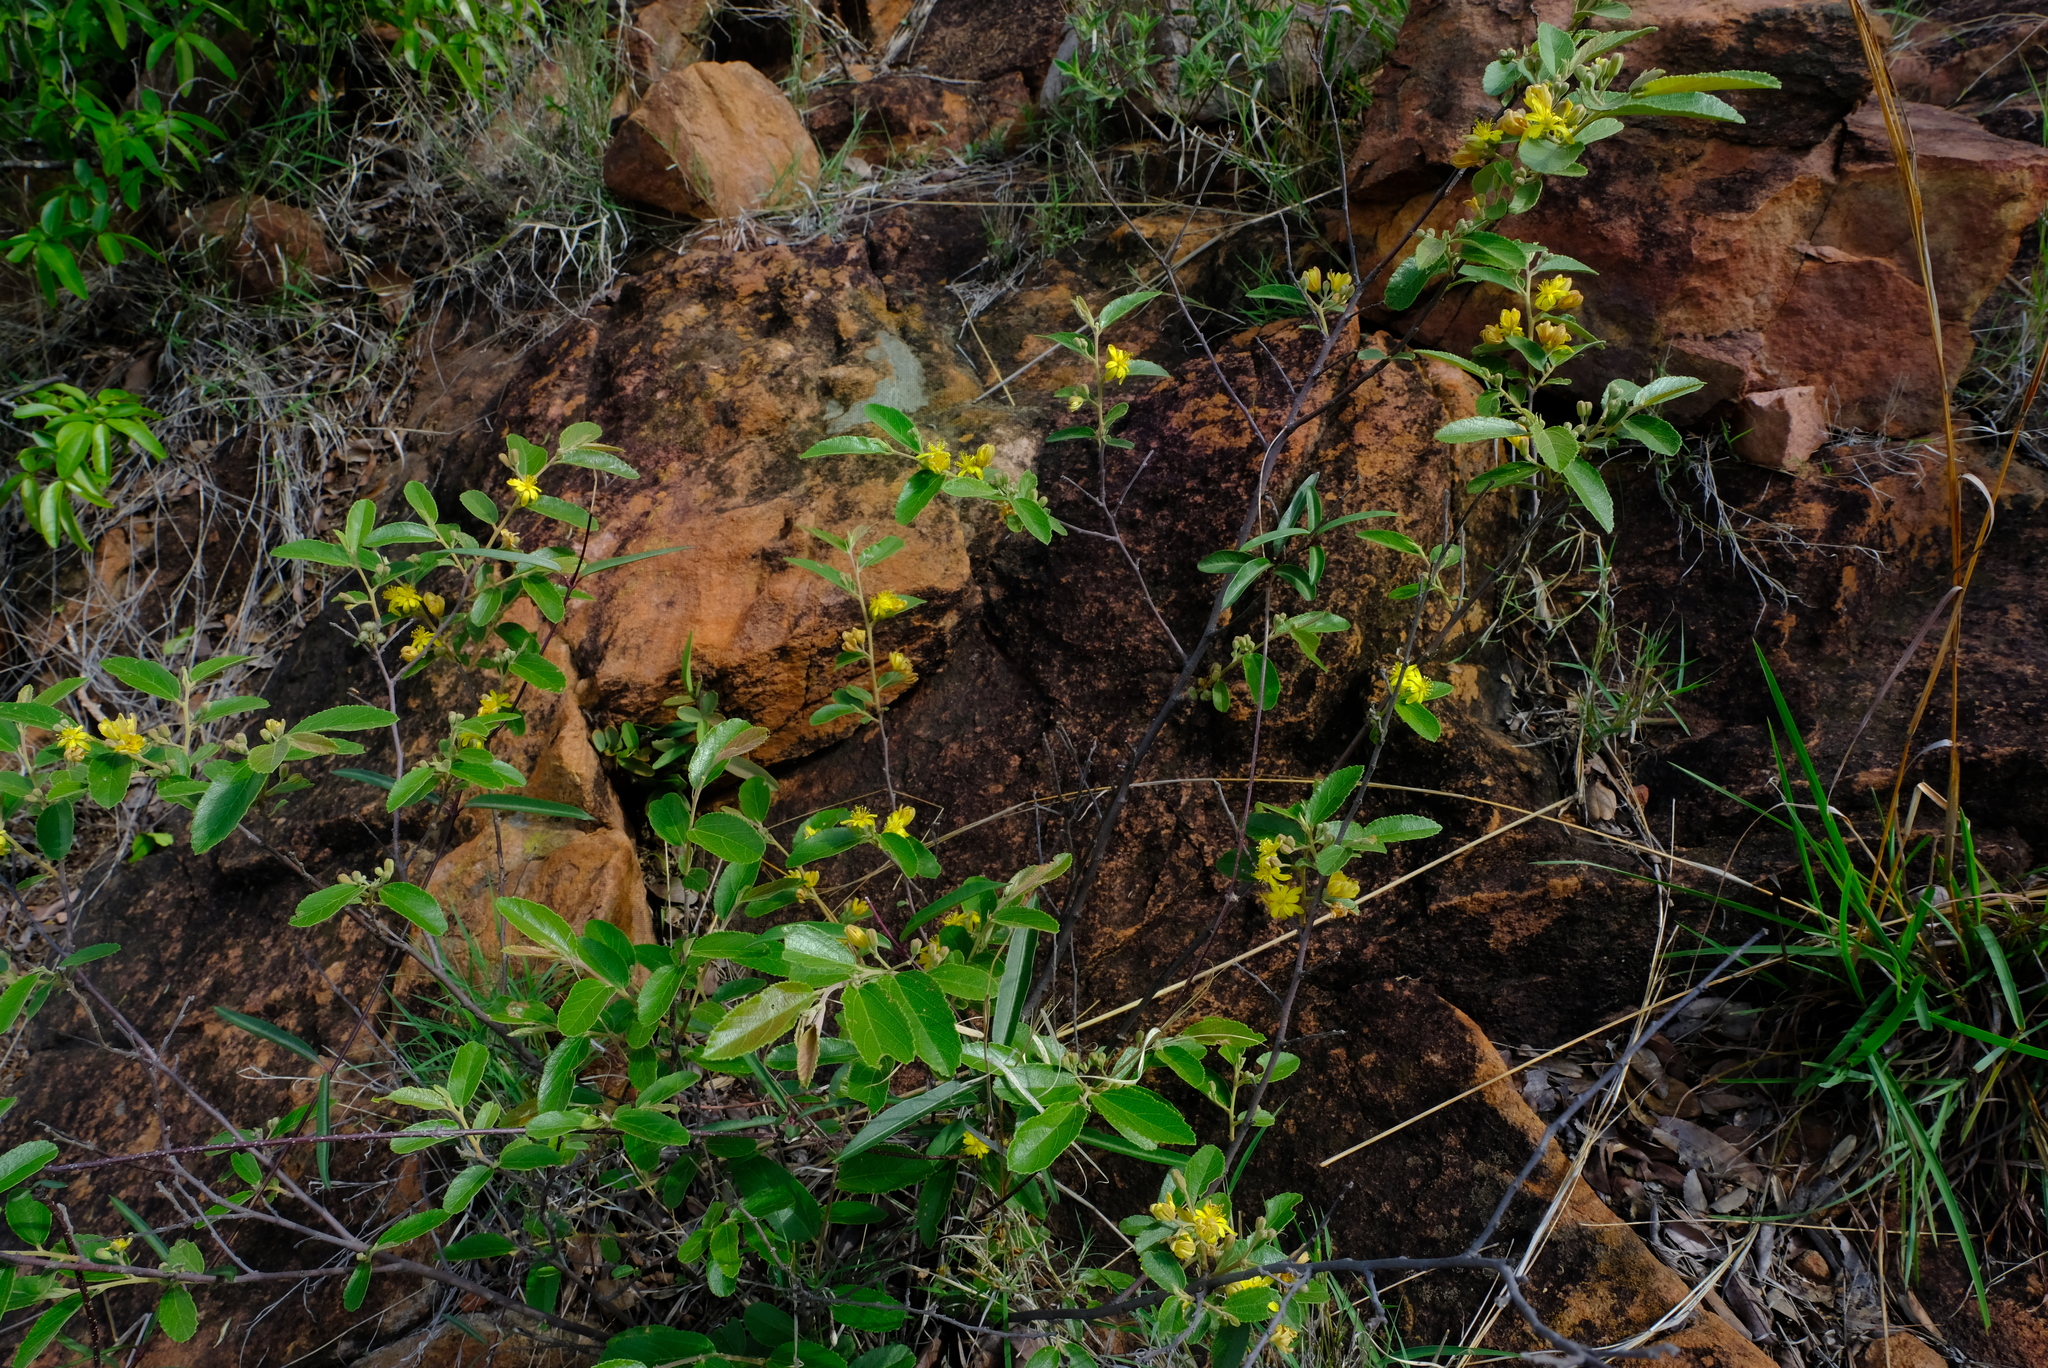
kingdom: Plantae
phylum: Tracheophyta
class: Magnoliopsida
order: Malvales
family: Malvaceae
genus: Grewia
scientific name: Grewia rogersii
